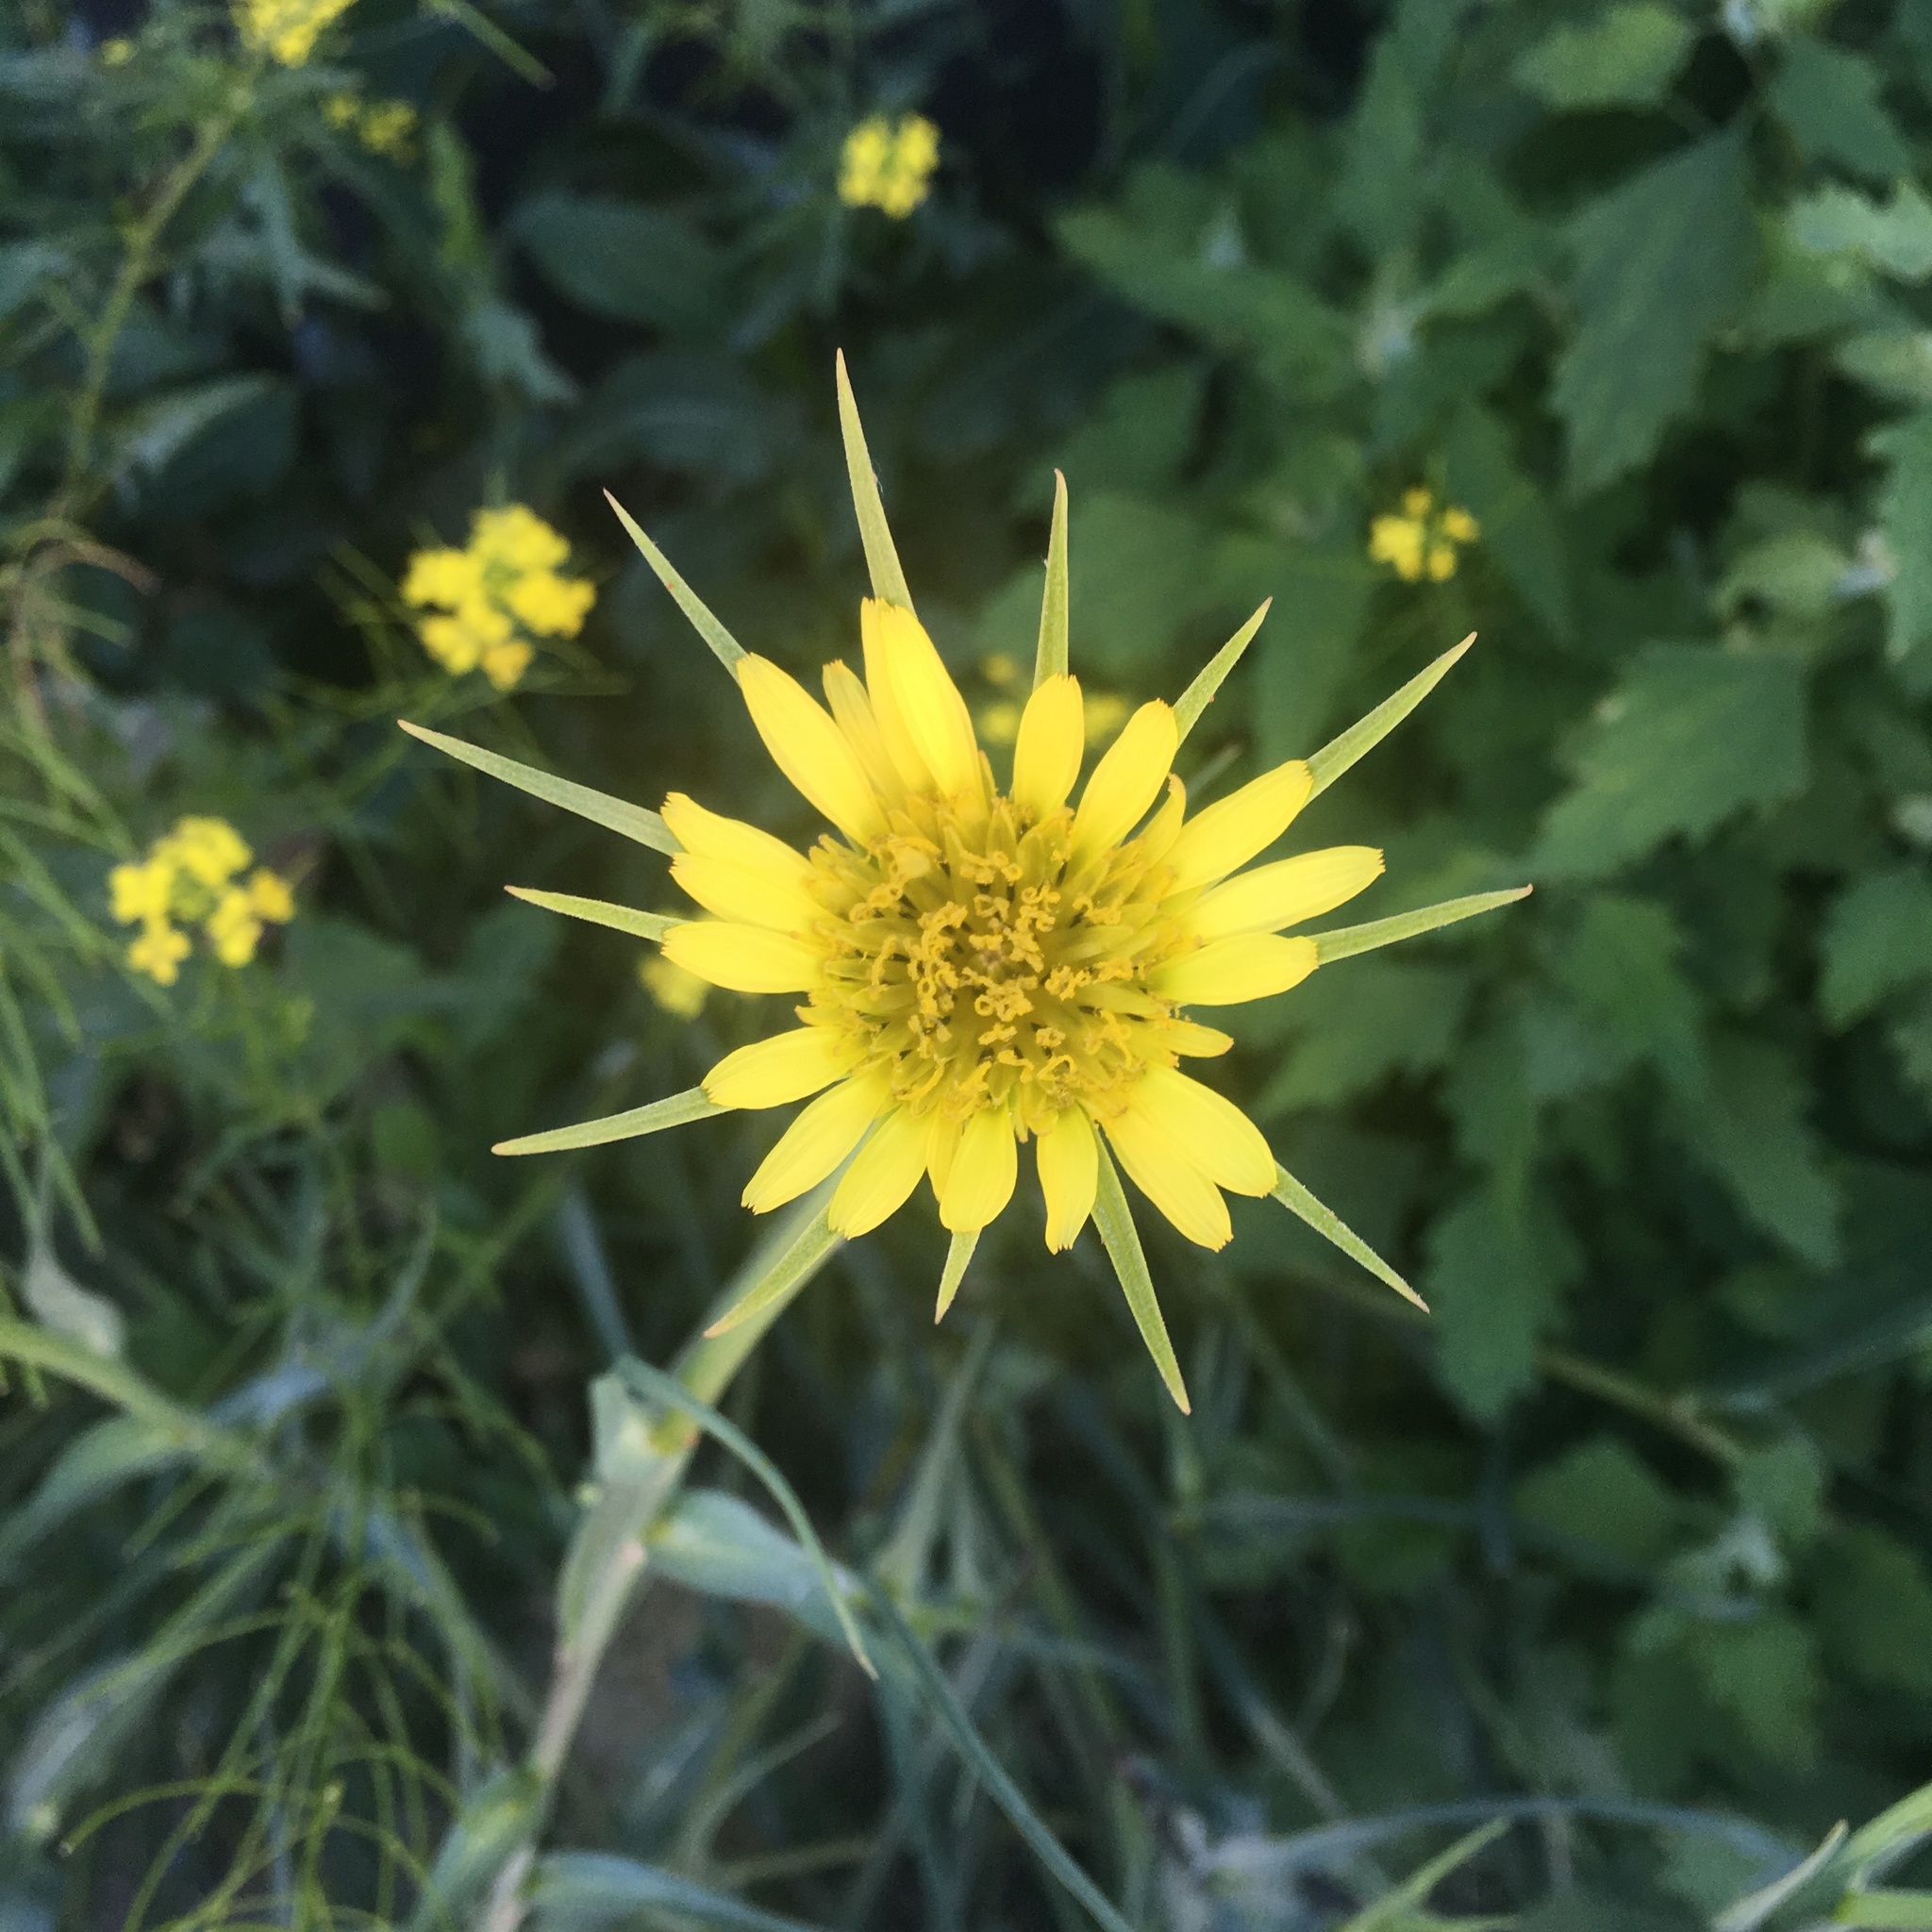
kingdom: Plantae
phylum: Tracheophyta
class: Magnoliopsida
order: Asterales
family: Asteraceae
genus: Tragopogon
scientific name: Tragopogon dubius
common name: Yellow salsify
